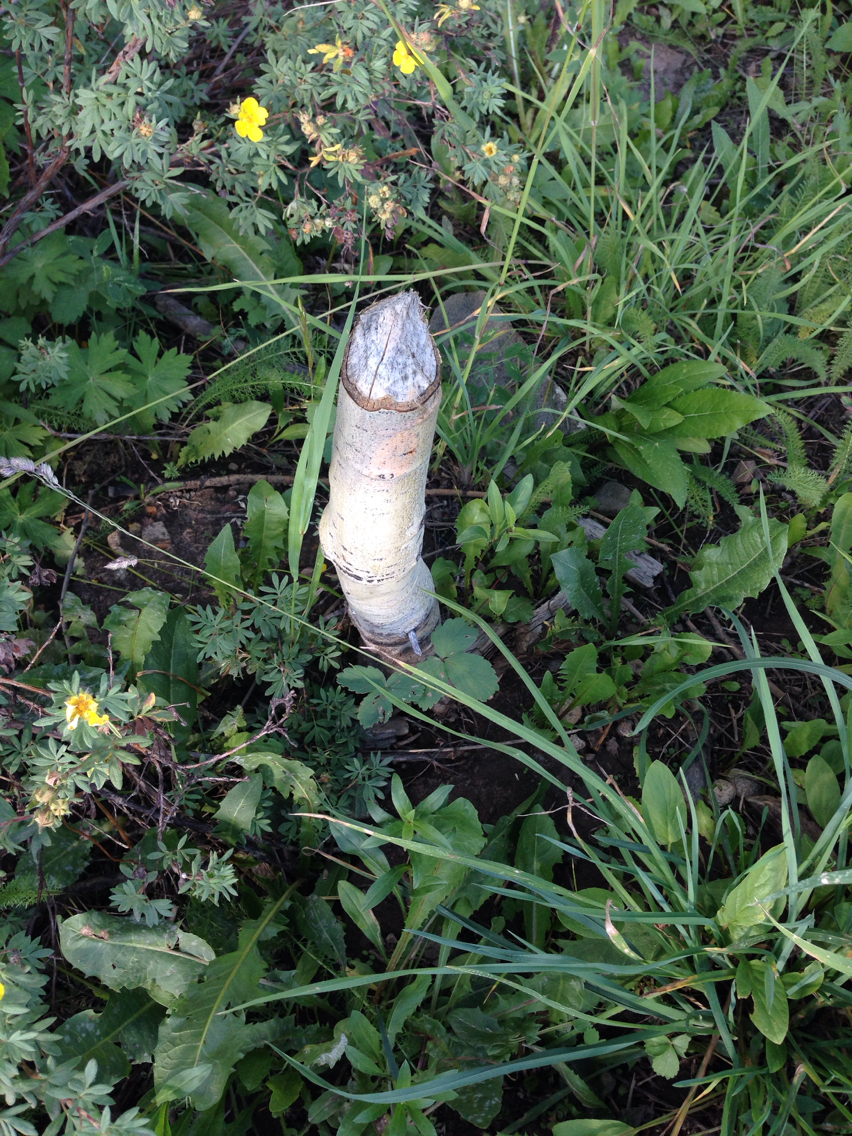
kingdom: Animalia
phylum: Chordata
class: Mammalia
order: Rodentia
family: Castoridae
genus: Castor
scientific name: Castor canadensis
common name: American beaver
